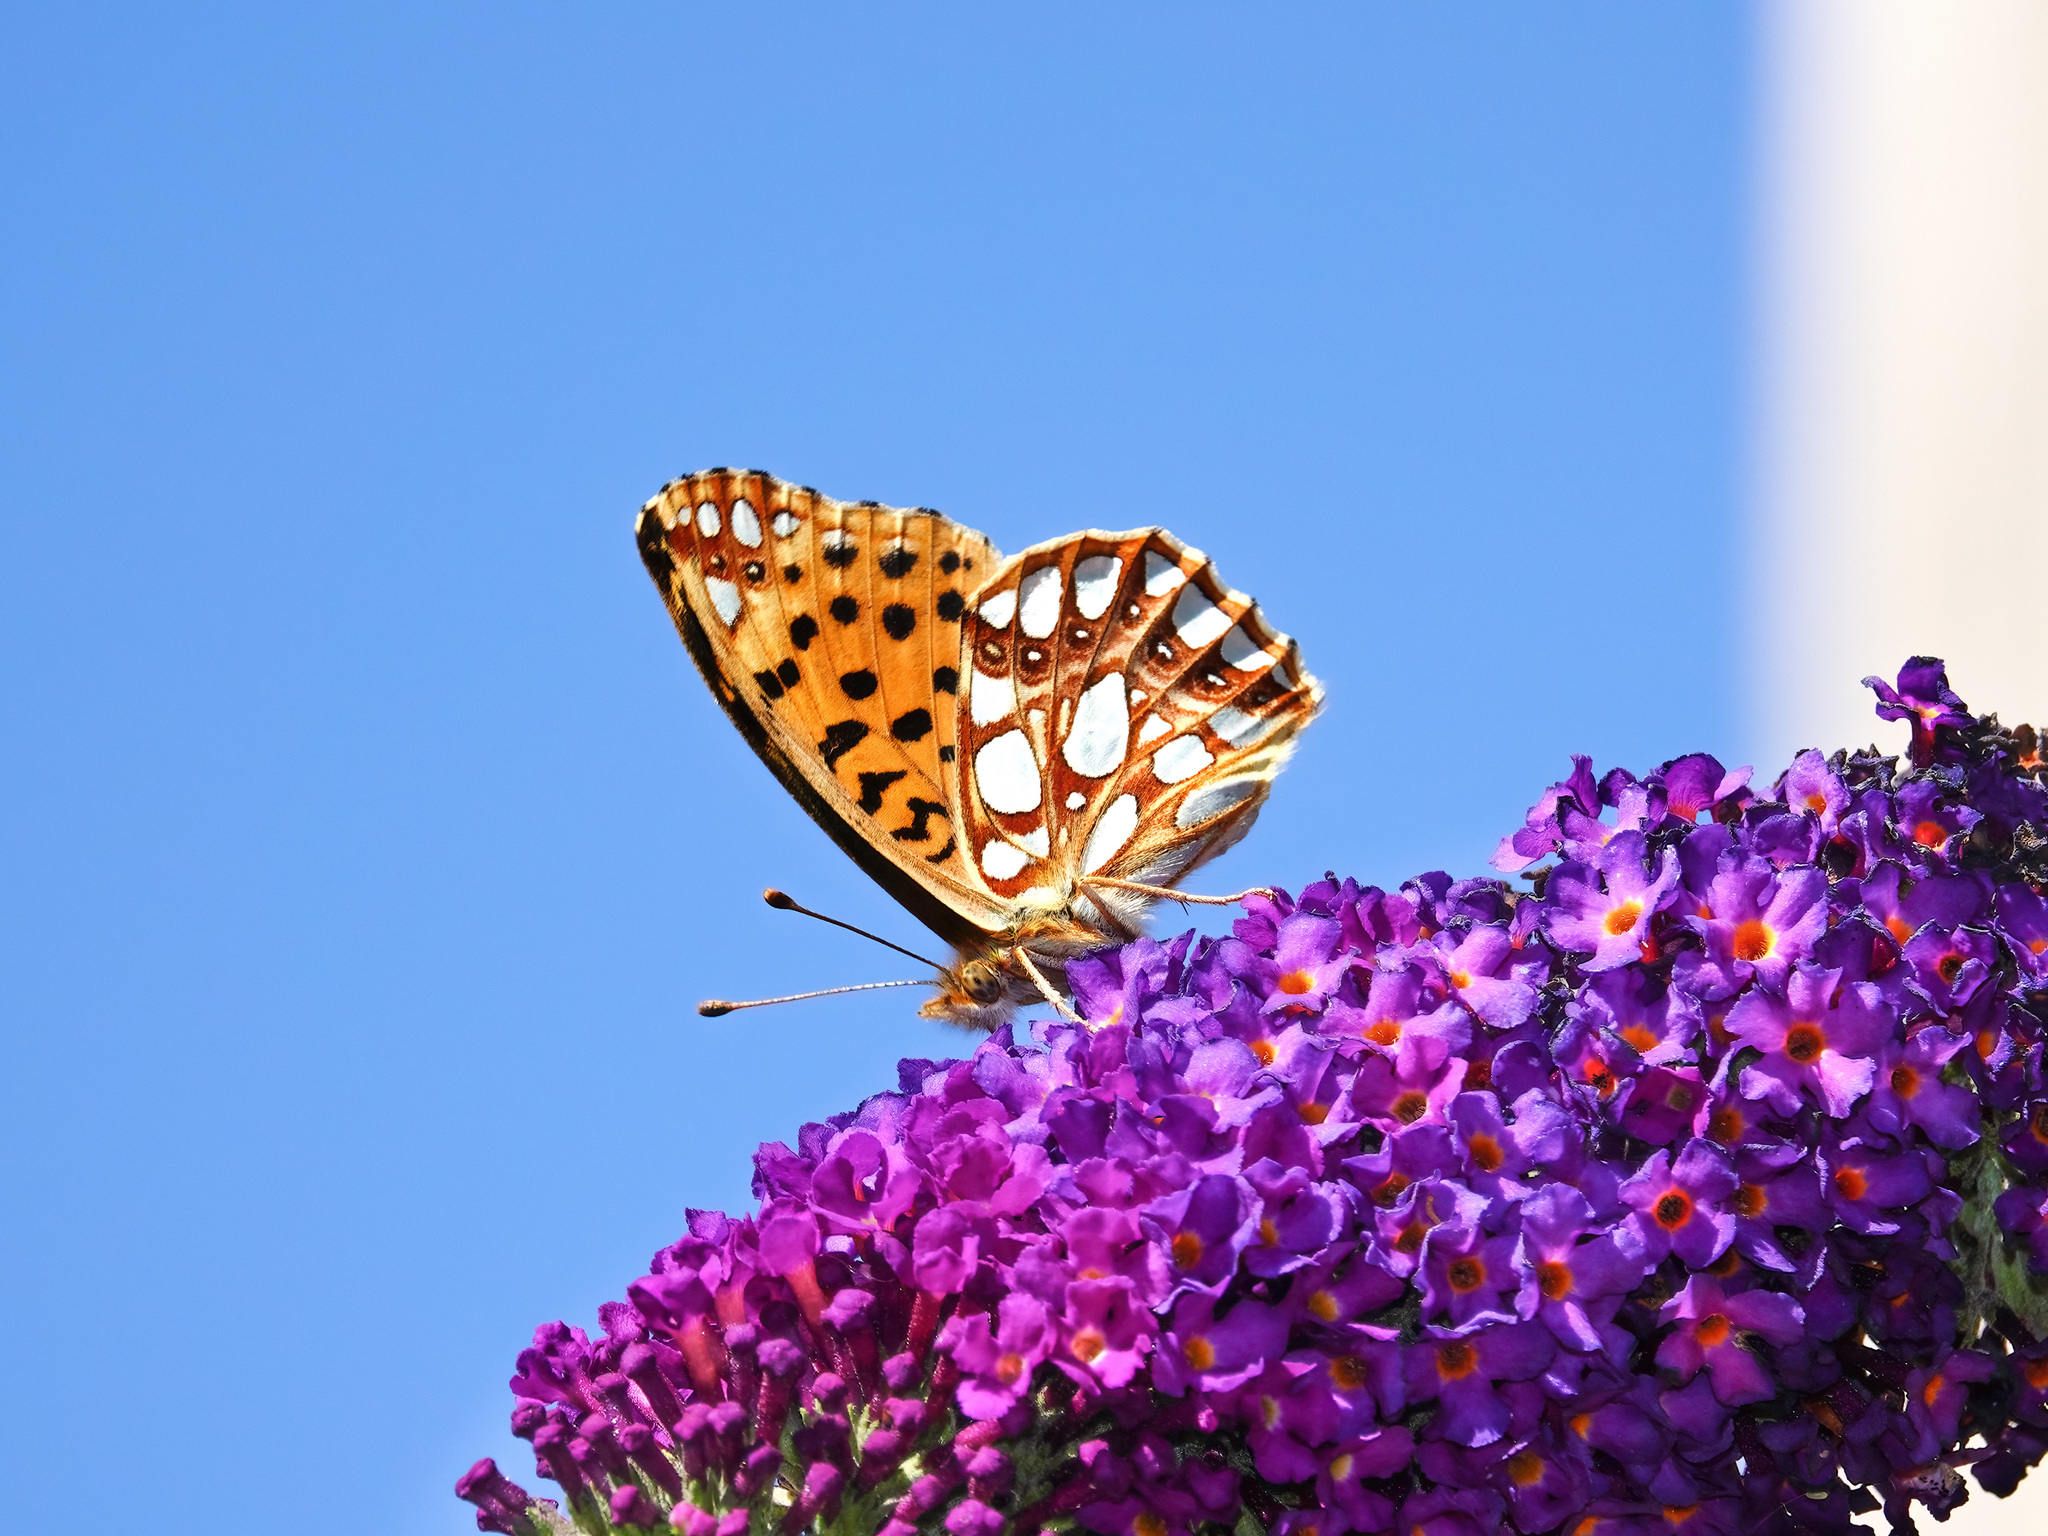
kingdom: Animalia
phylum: Arthropoda
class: Insecta
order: Lepidoptera
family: Nymphalidae
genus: Issoria
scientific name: Issoria lathonia
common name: Queen of spain fritillary
